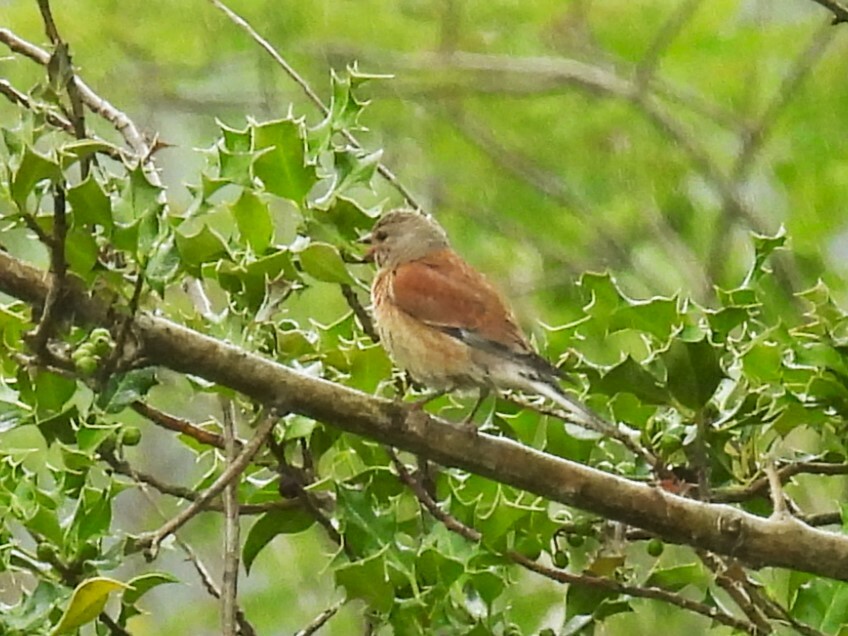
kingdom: Animalia
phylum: Chordata
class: Aves
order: Passeriformes
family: Fringillidae
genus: Linaria
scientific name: Linaria cannabina
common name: Common linnet
